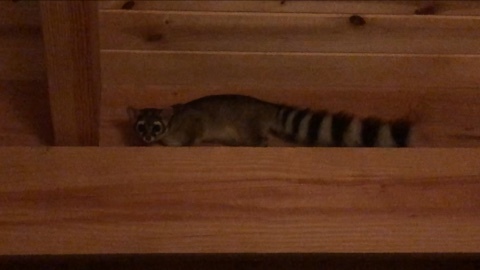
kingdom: Animalia
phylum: Chordata
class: Mammalia
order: Carnivora
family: Procyonidae
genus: Bassariscus
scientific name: Bassariscus astutus
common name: Ringtail
